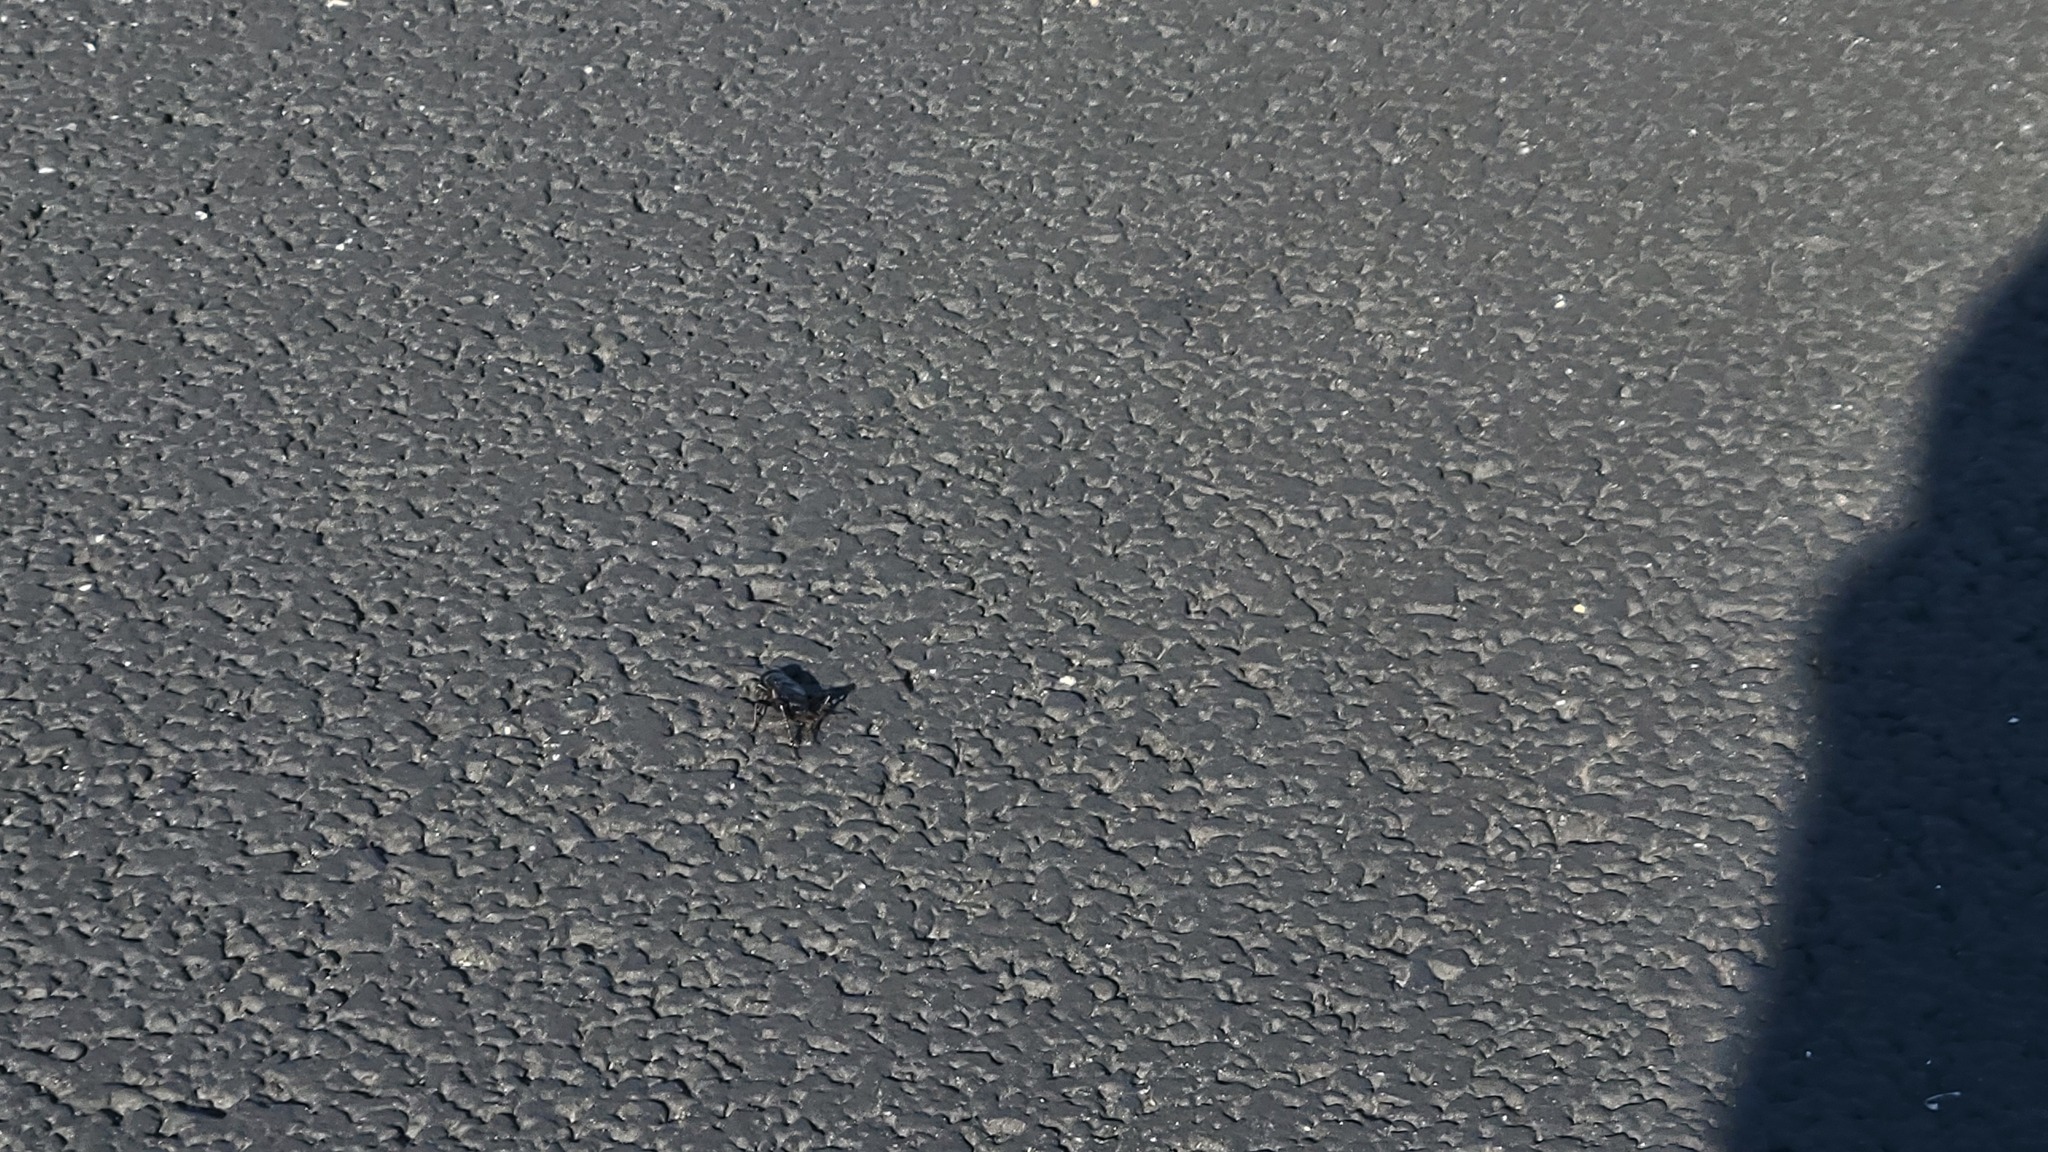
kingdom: Animalia
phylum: Arthropoda
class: Insecta
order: Orthoptera
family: Gryllidae
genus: Gryllus
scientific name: Gryllus pennsylvanicus
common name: Fall field cricket
